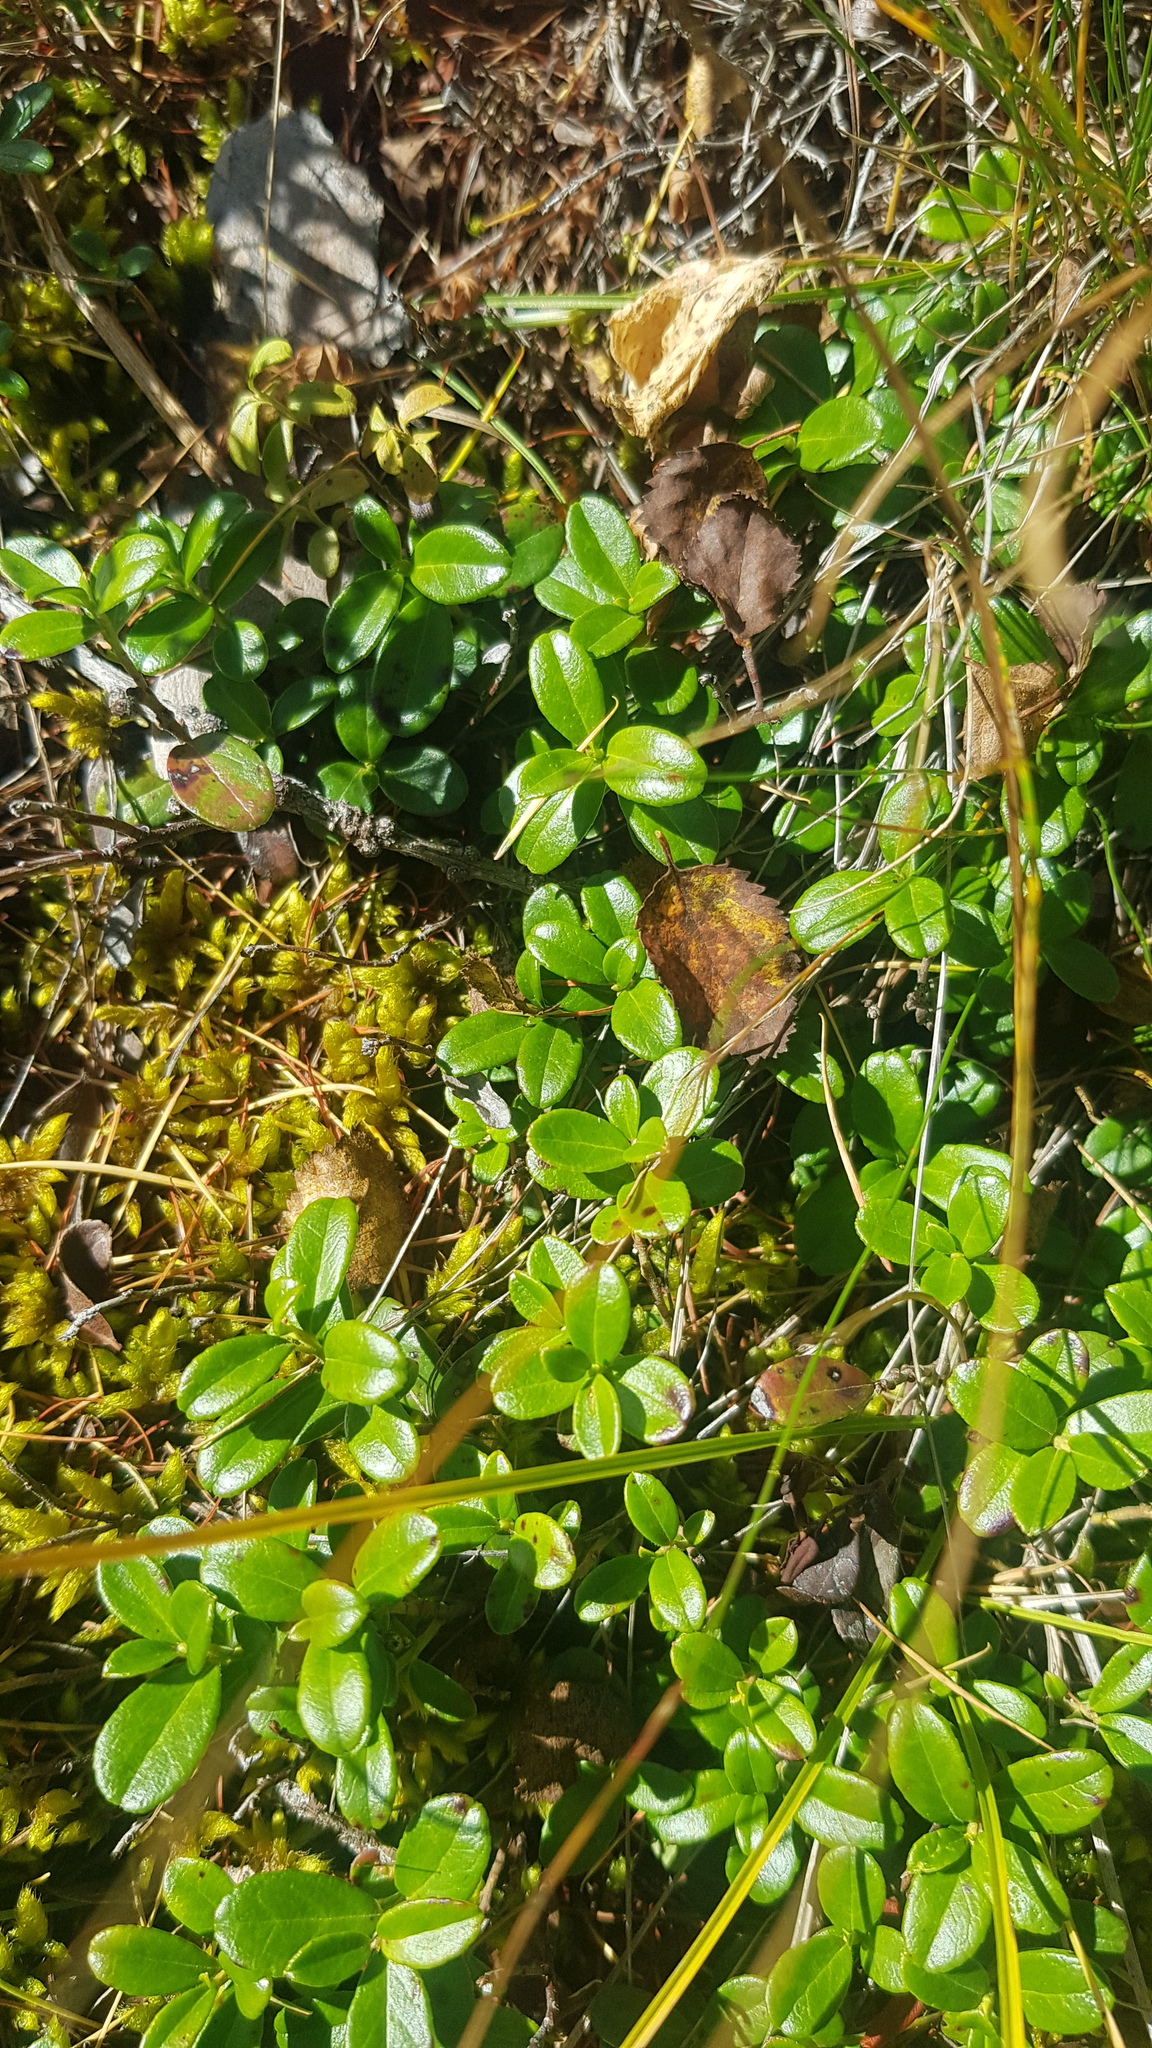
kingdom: Plantae
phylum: Tracheophyta
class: Magnoliopsida
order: Ericales
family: Ericaceae
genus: Vaccinium
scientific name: Vaccinium vitis-idaea
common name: Cowberry
